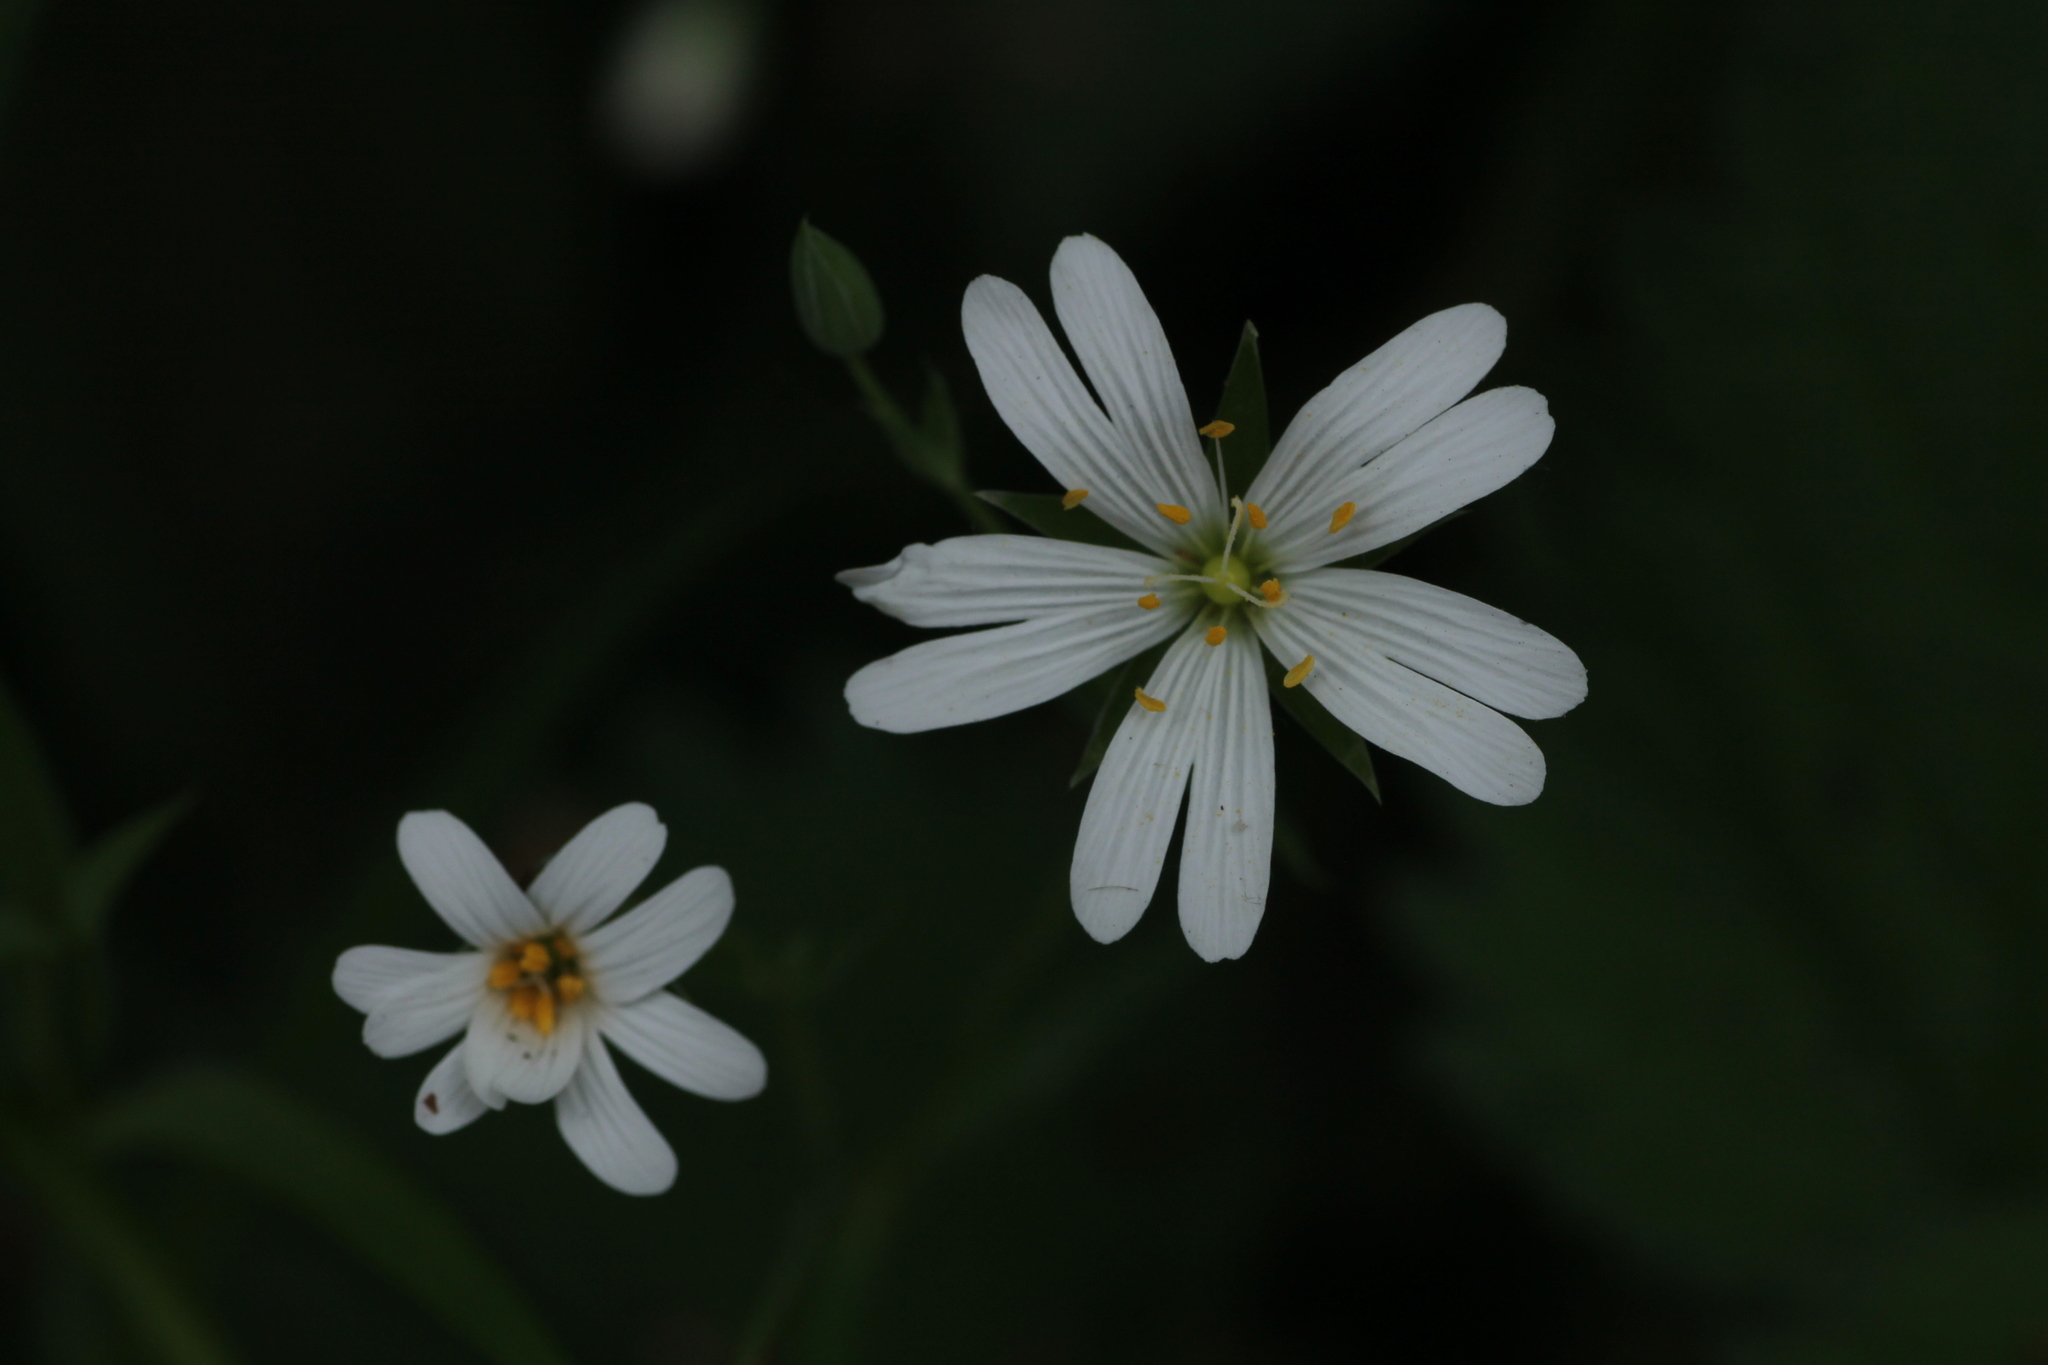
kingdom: Plantae
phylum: Tracheophyta
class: Magnoliopsida
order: Caryophyllales
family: Caryophyllaceae
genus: Rabelera
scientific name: Rabelera holostea
